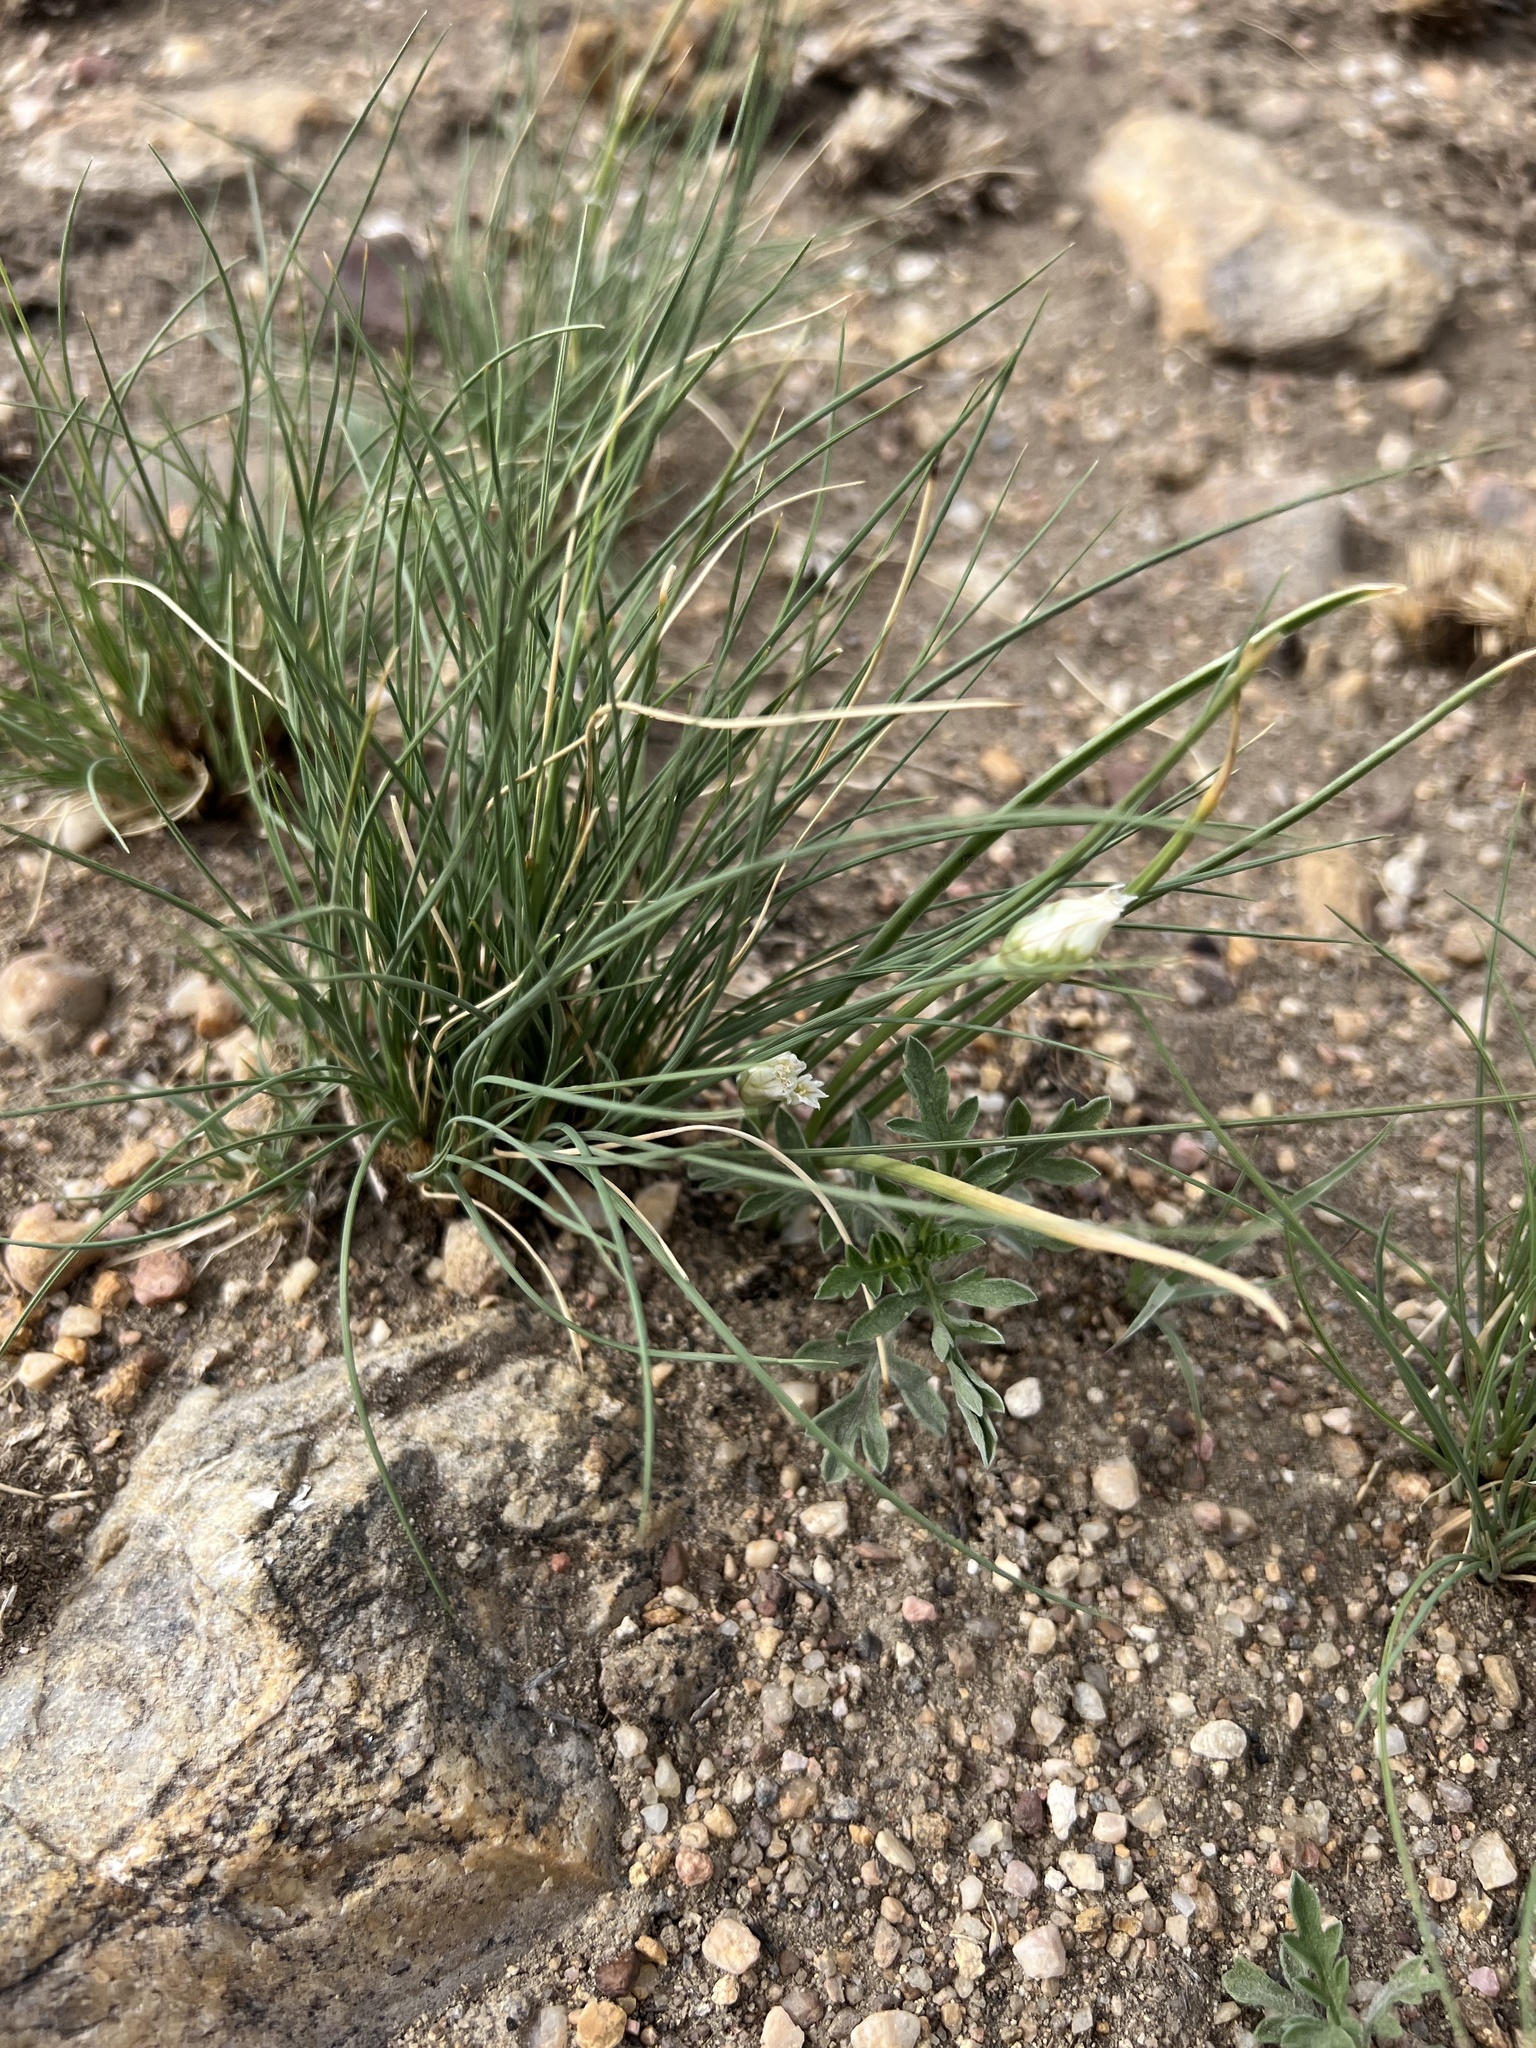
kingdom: Plantae
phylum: Tracheophyta
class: Liliopsida
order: Asparagales
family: Amaryllidaceae
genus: Allium
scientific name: Allium textile
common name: Prairie onion
